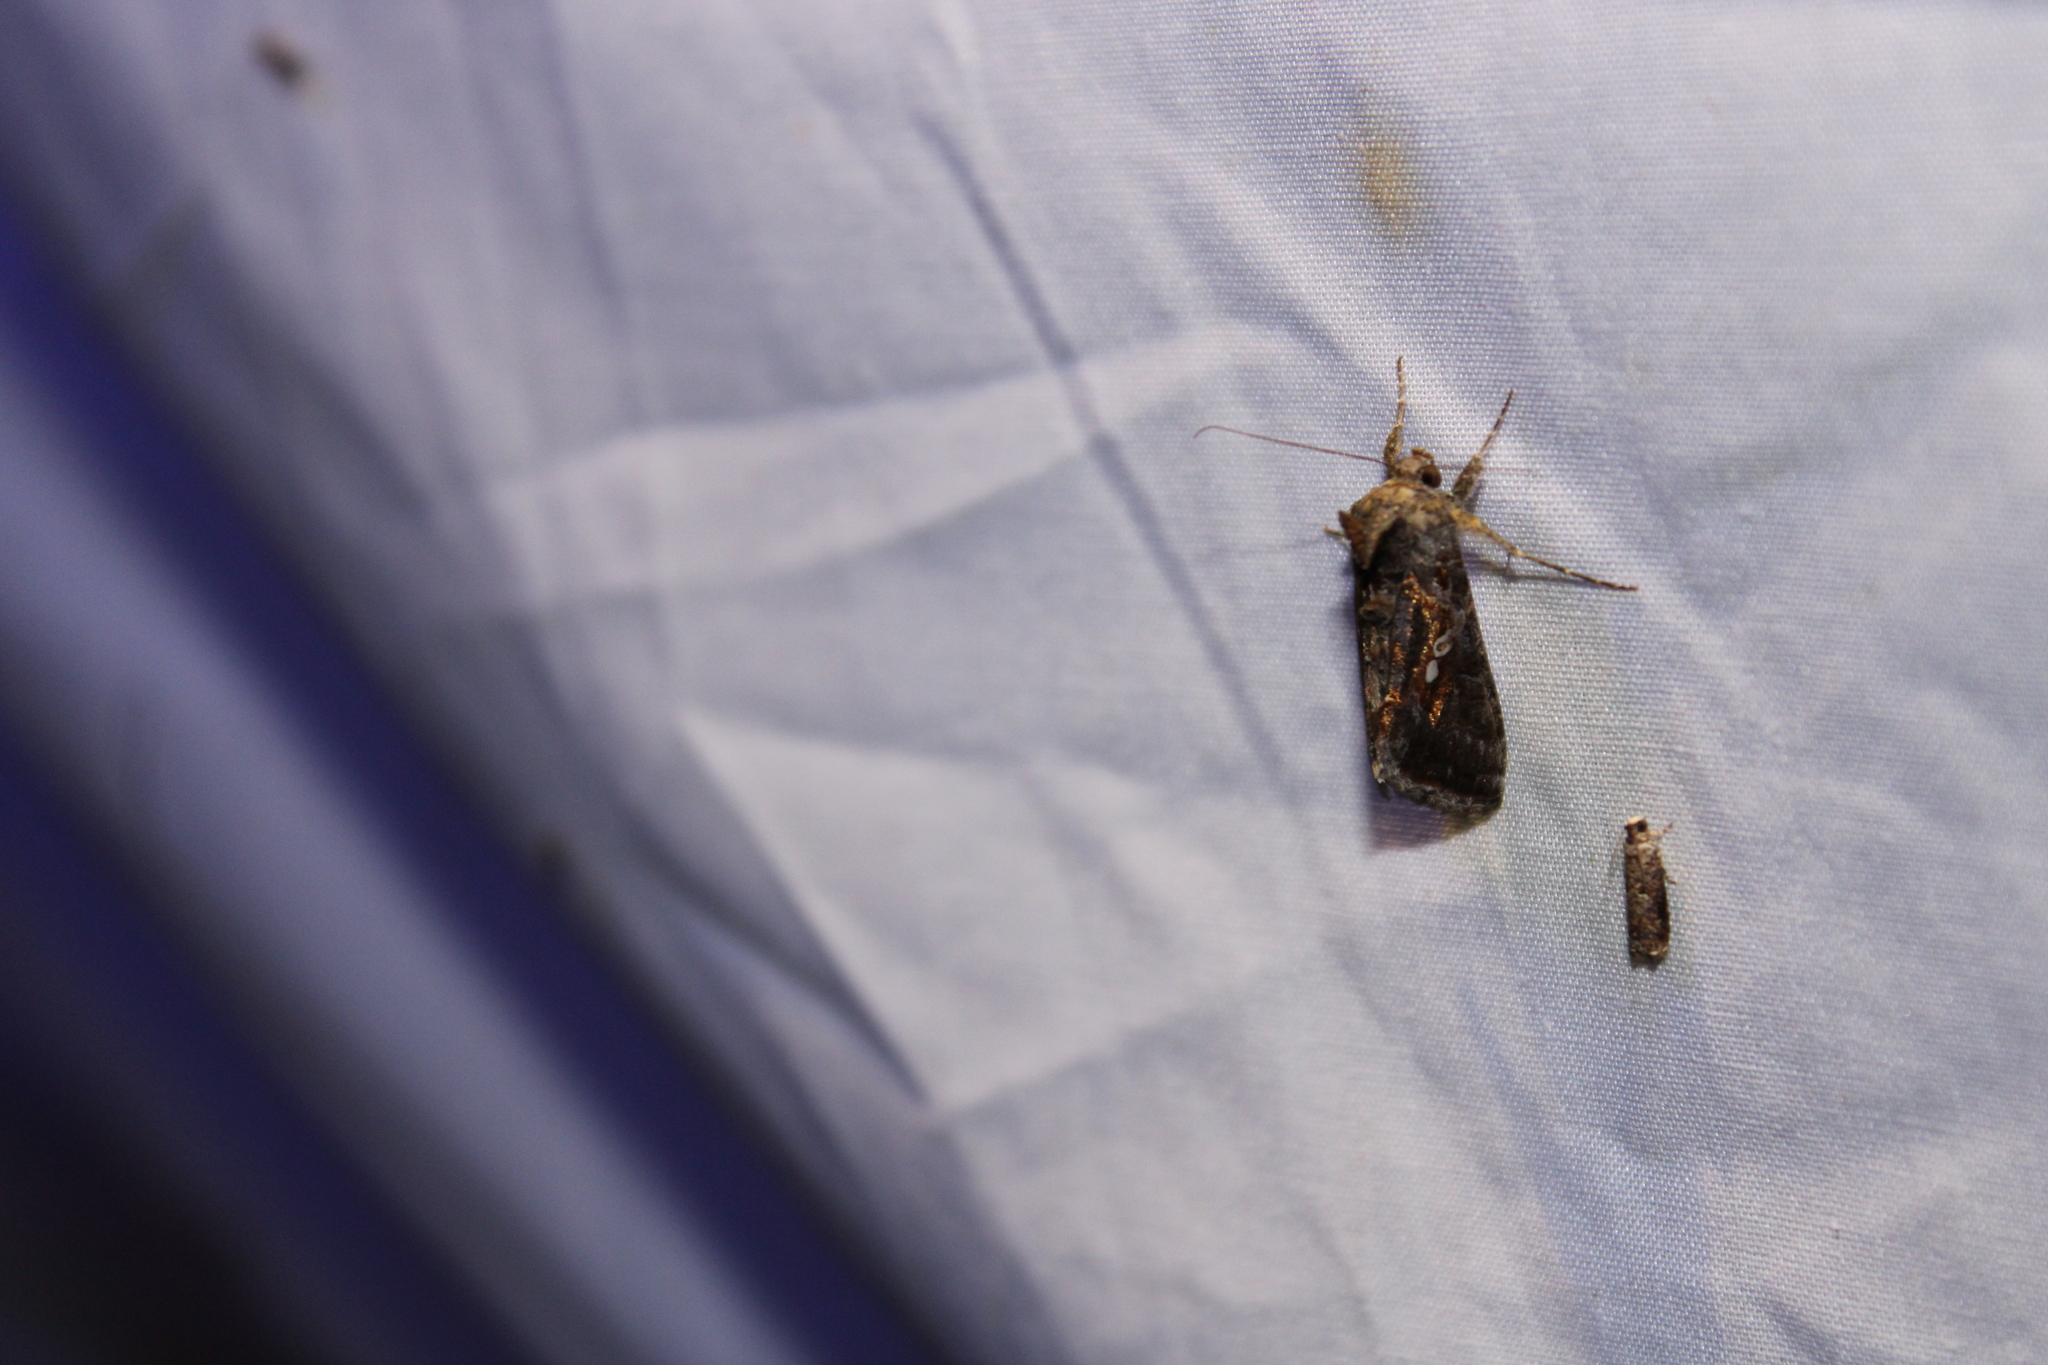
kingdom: Animalia
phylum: Arthropoda
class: Insecta
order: Lepidoptera
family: Noctuidae
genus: Chrysodeixis
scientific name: Chrysodeixis includens
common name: Cutworm moth
